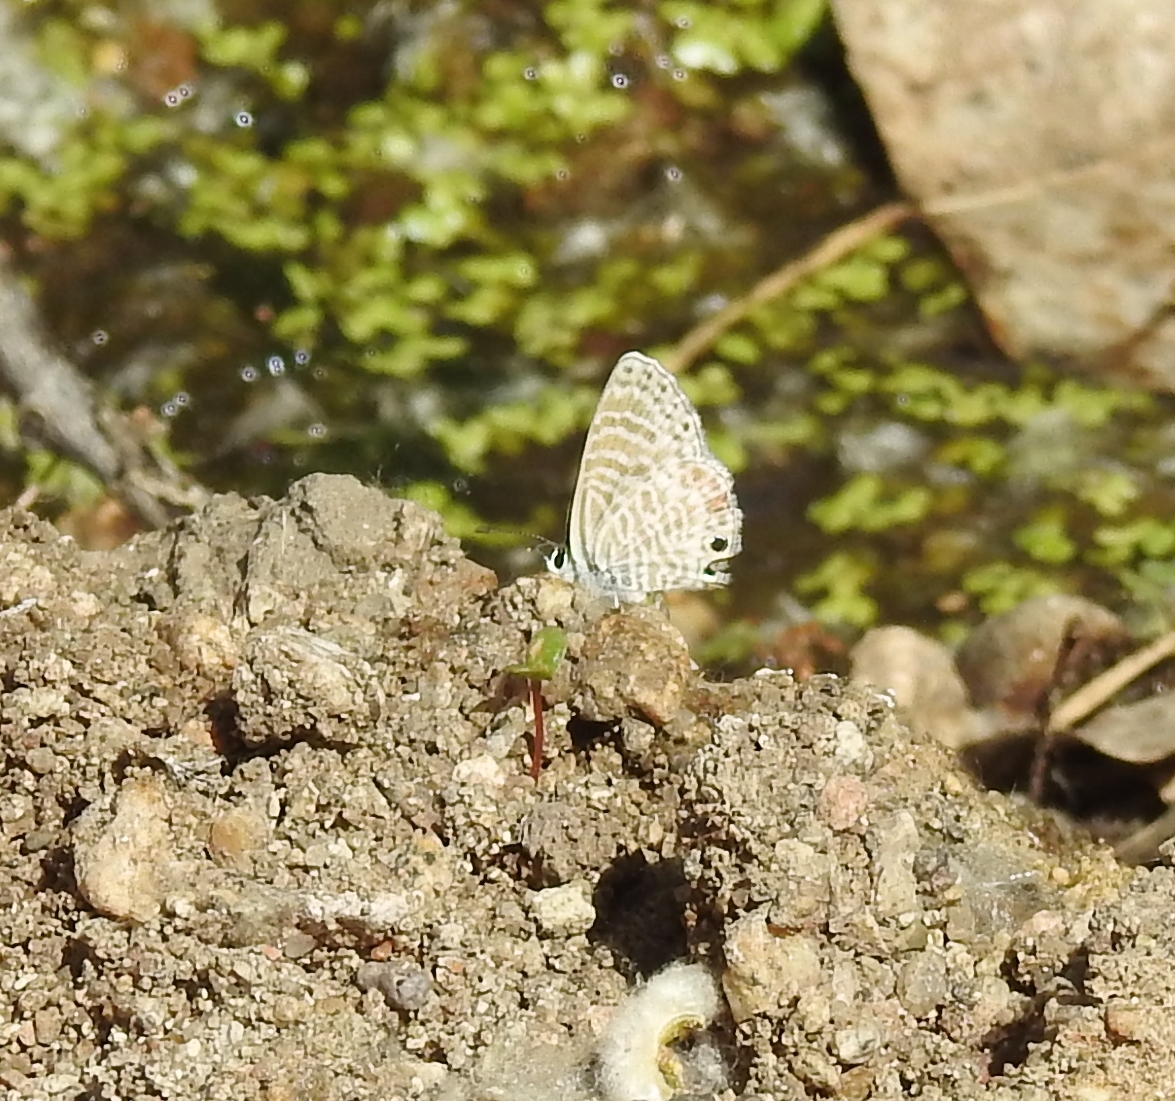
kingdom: Animalia
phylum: Arthropoda
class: Insecta
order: Lepidoptera
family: Lycaenidae
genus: Leptotes
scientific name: Leptotes marina
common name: Marine blue
